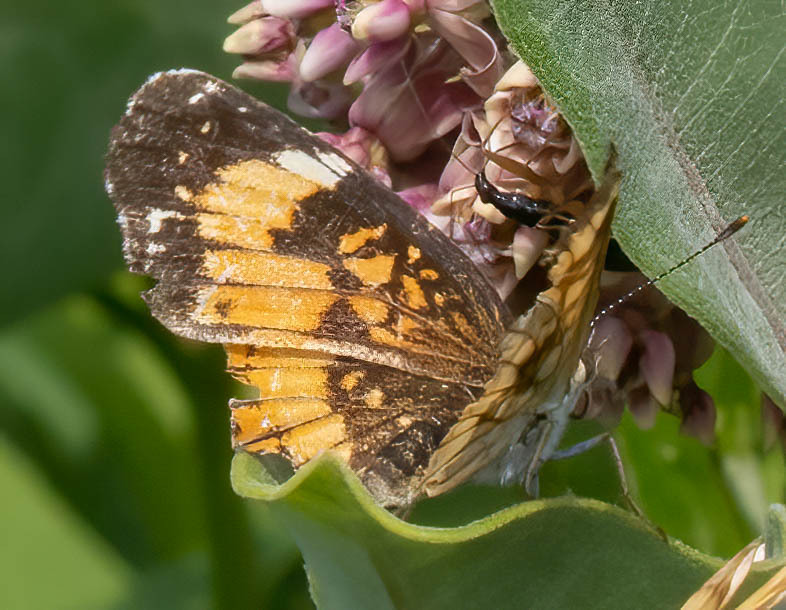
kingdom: Animalia
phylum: Arthropoda
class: Insecta
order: Lepidoptera
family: Nymphalidae
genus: Chlosyne
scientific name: Chlosyne nycteis
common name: Silvery checkerspot
